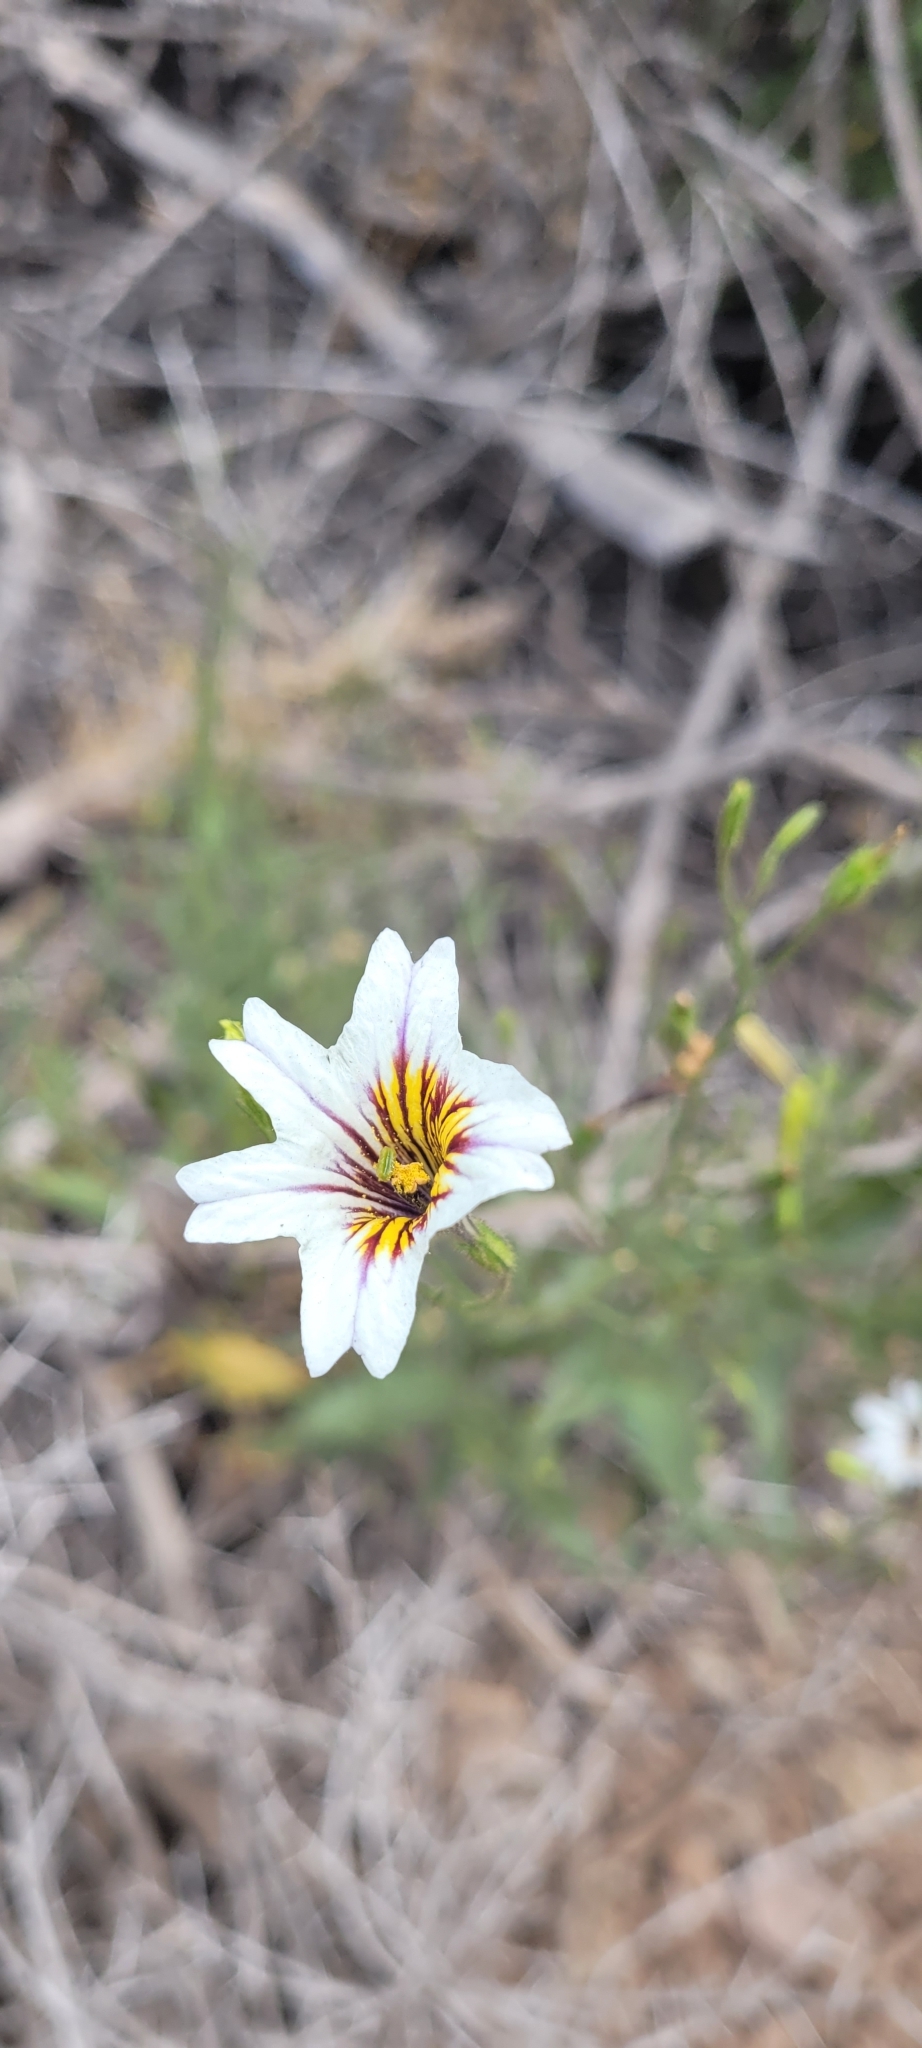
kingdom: Plantae
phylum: Tracheophyta
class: Magnoliopsida
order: Solanales
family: Solanaceae
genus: Salpiglossis
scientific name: Salpiglossis sinuata
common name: Painted-tongue
